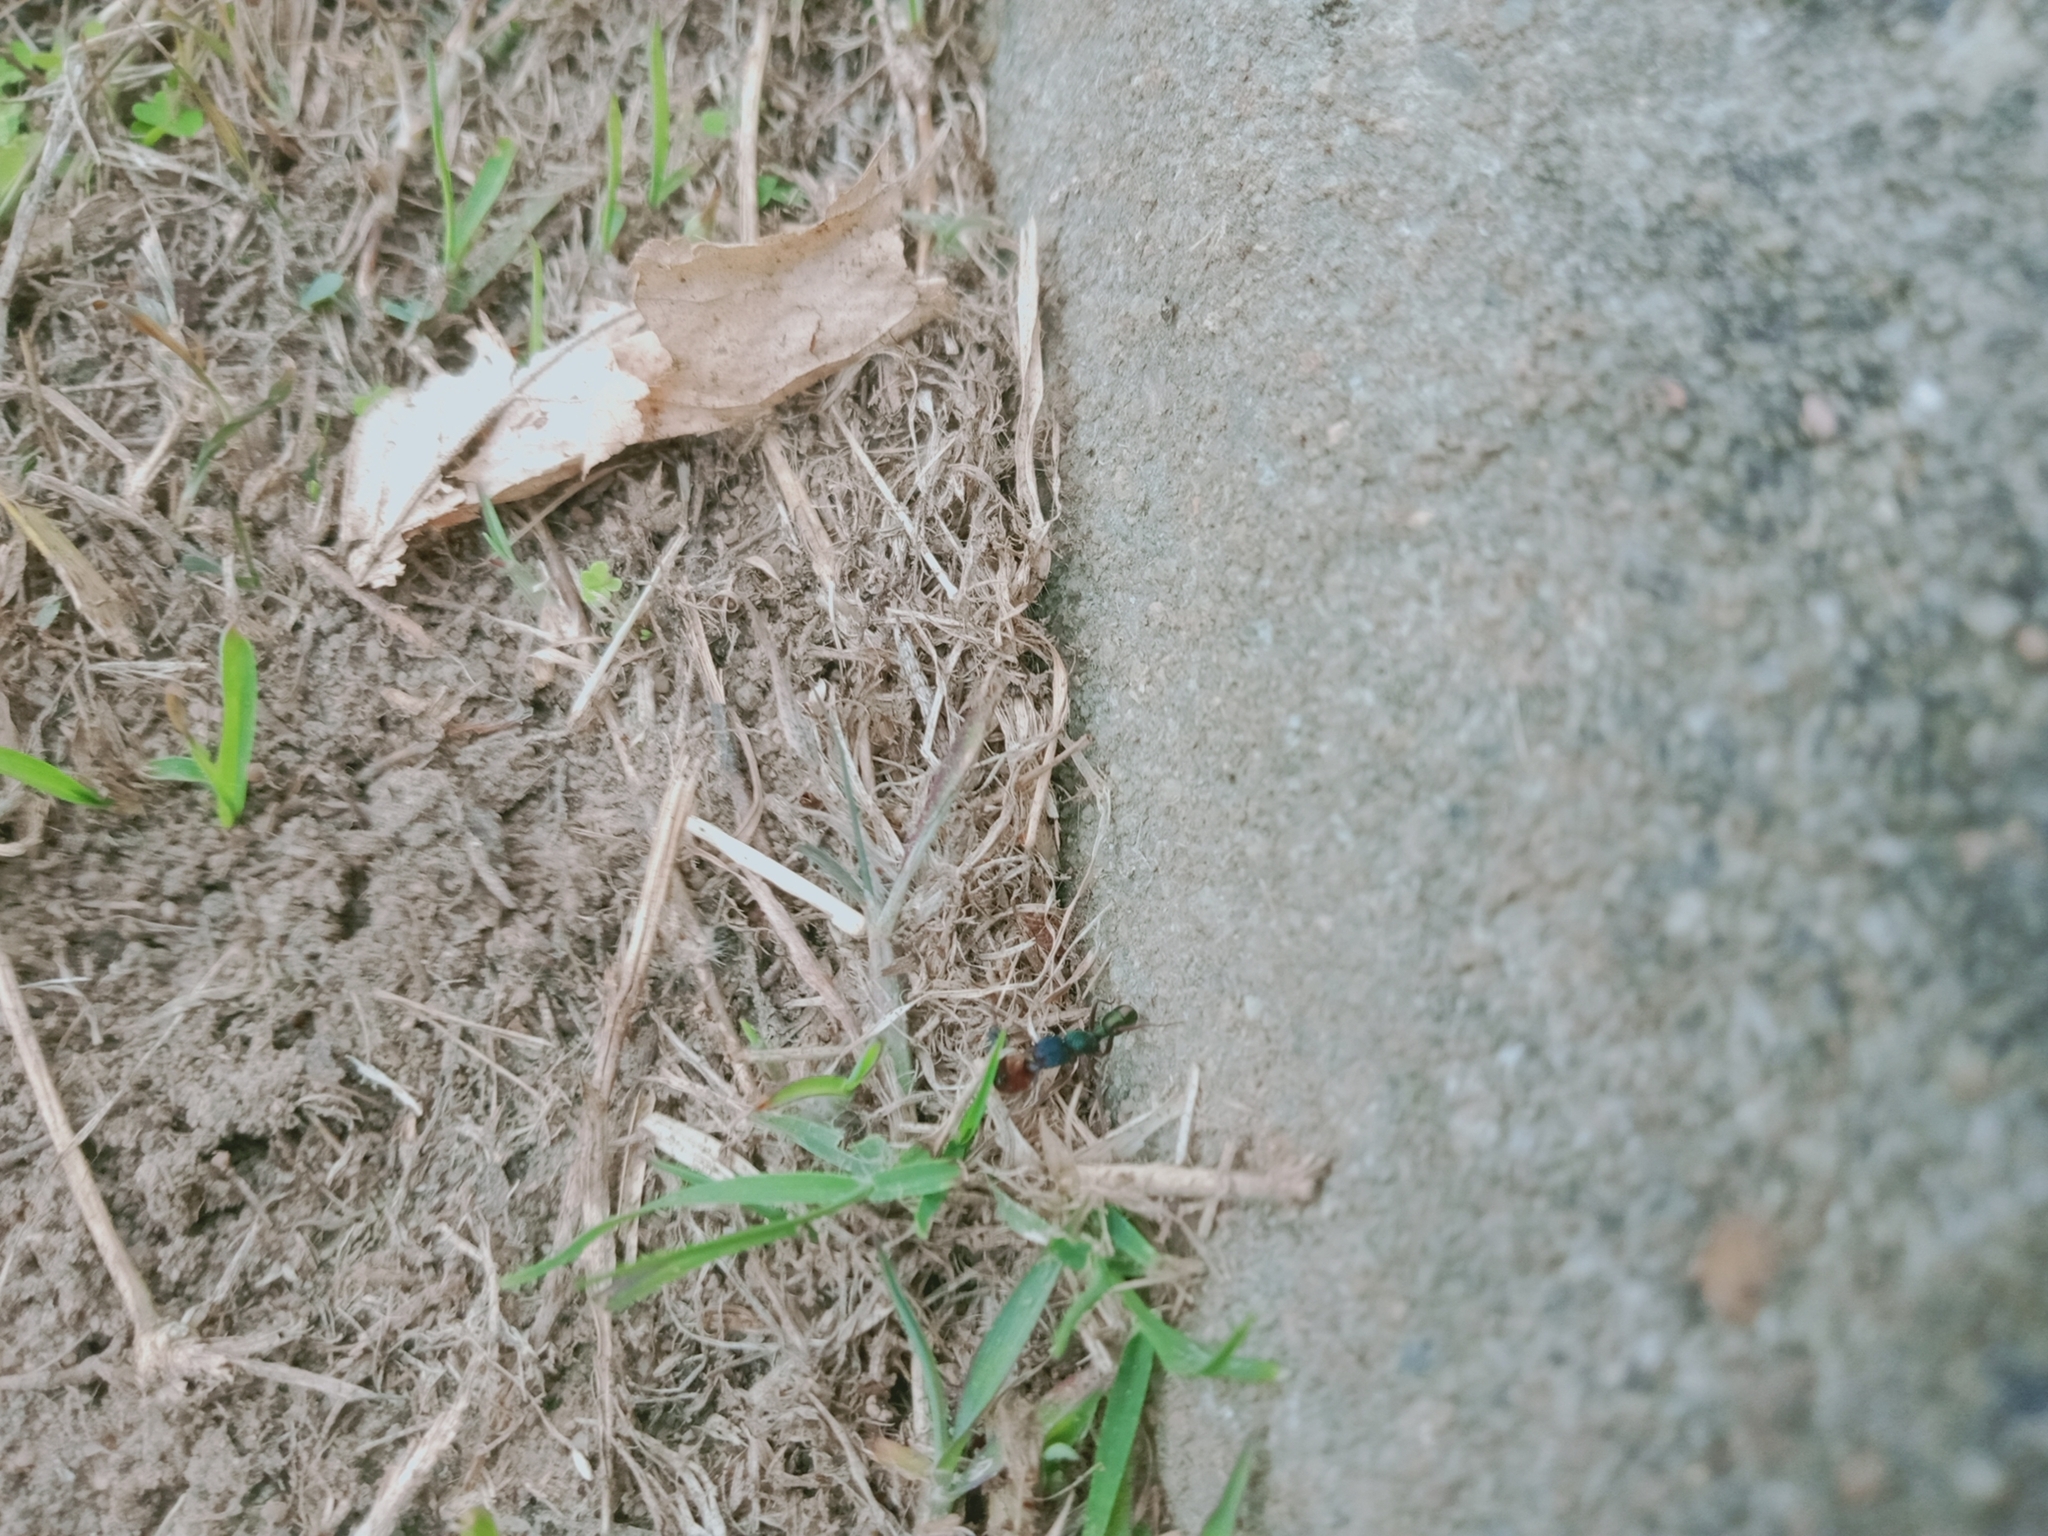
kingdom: Animalia
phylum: Arthropoda
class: Insecta
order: Hymenoptera
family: Formicidae
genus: Rhytidoponera
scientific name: Rhytidoponera metallica
